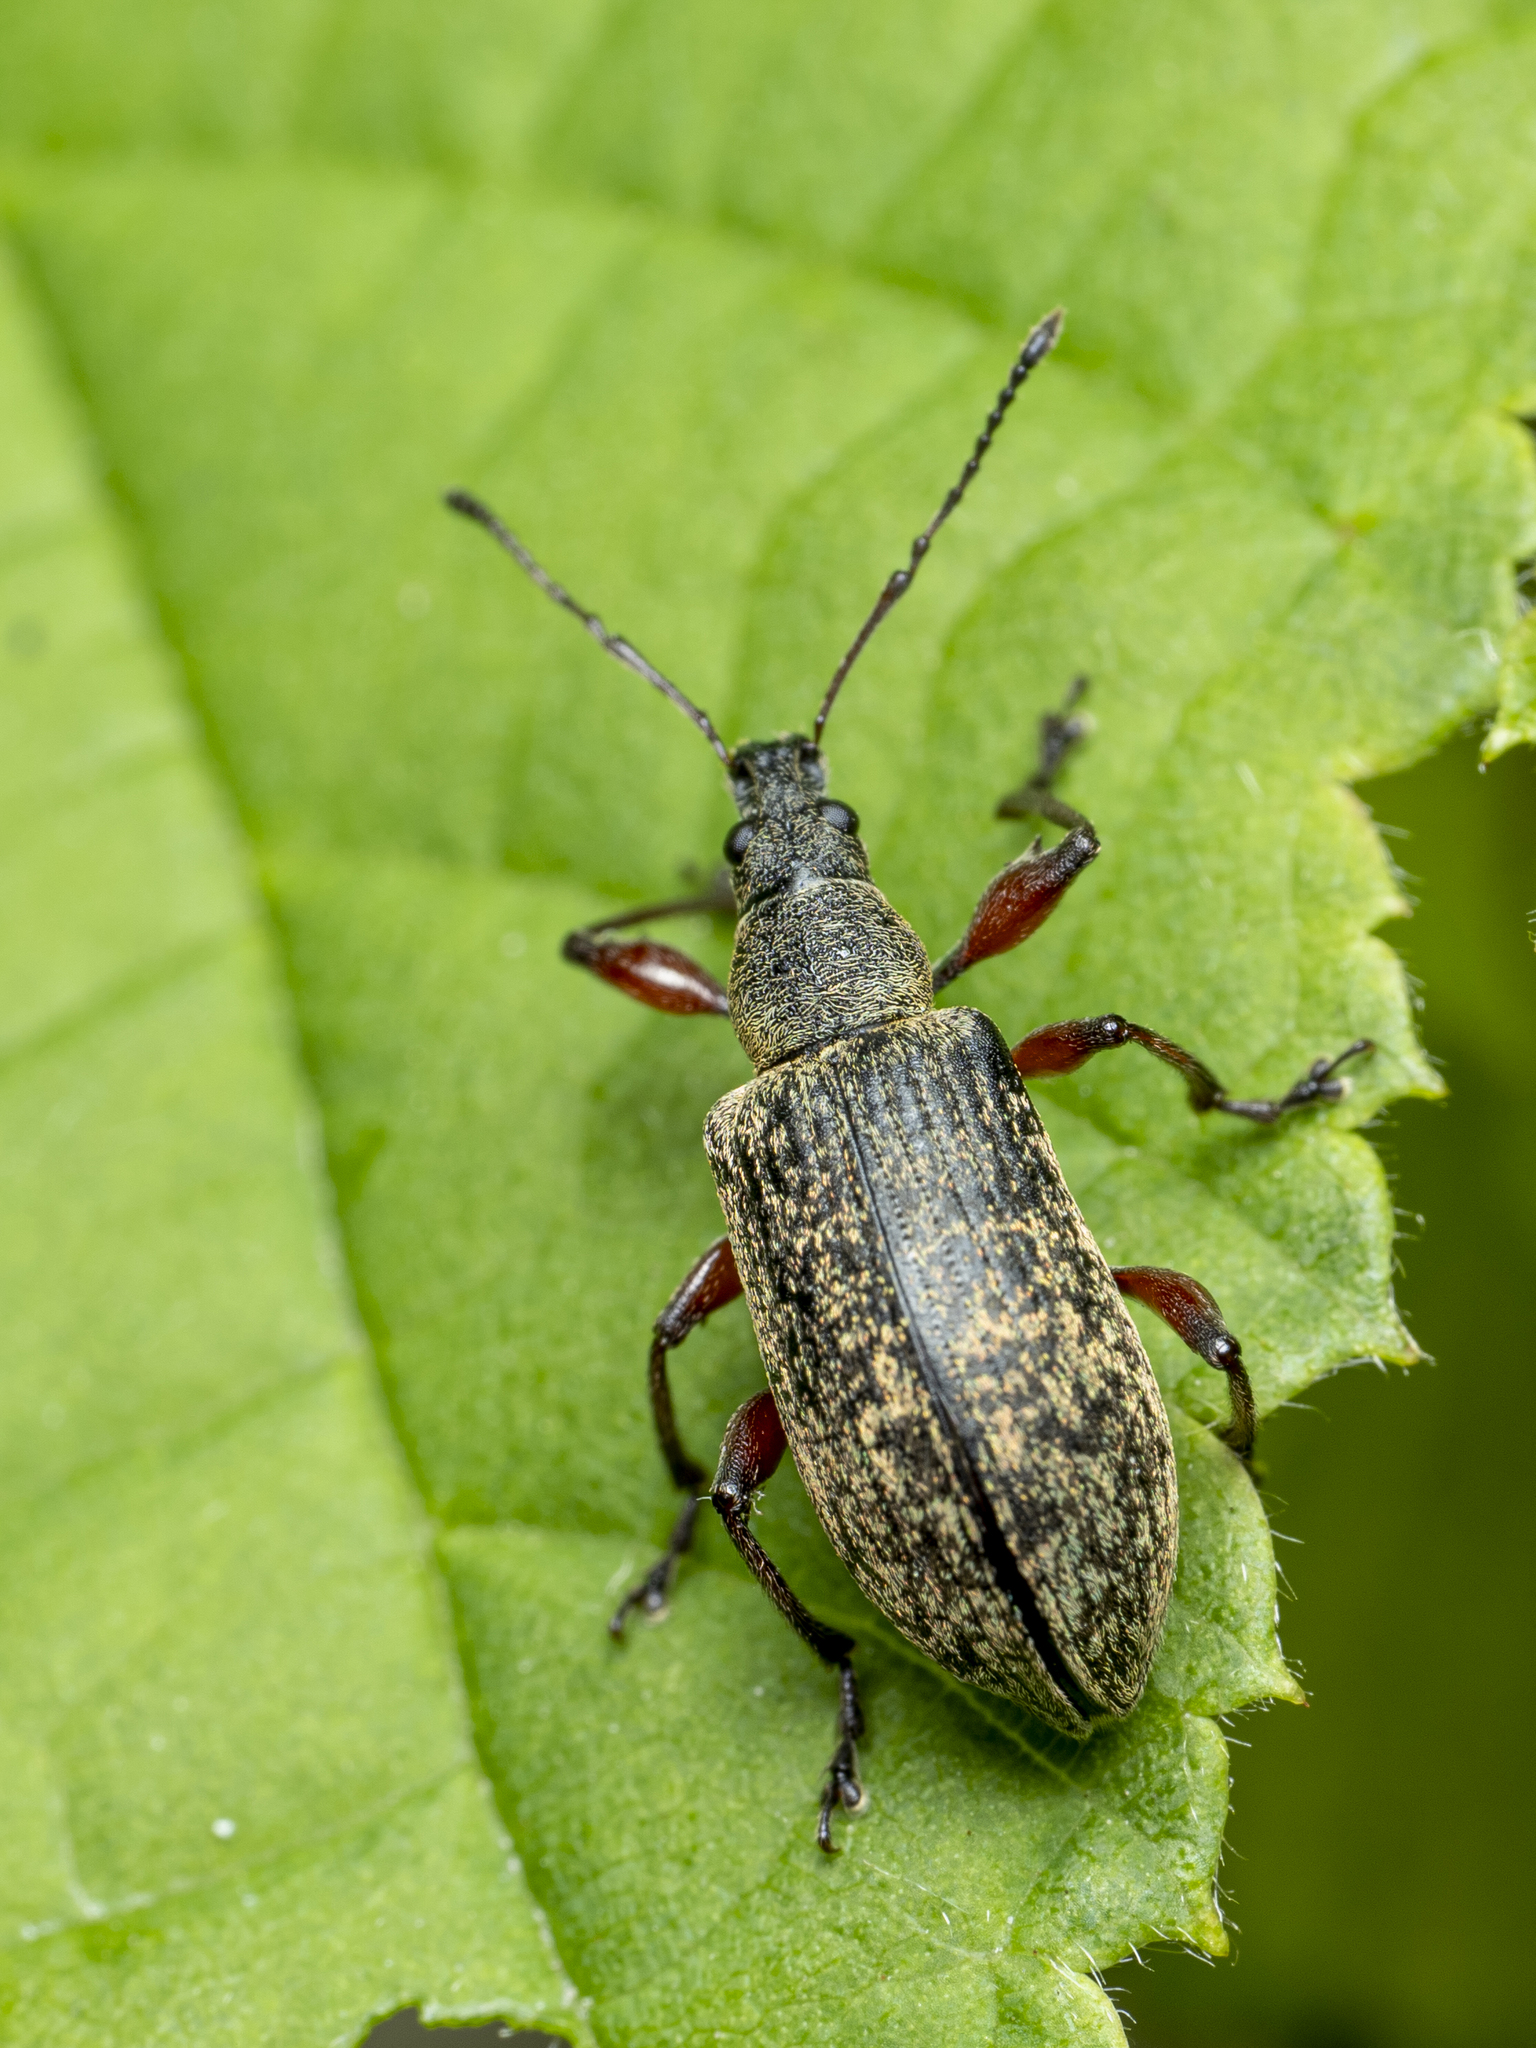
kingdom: Animalia
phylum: Arthropoda
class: Insecta
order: Coleoptera
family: Curculionidae
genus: Phyllobius
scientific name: Phyllobius glaucus
